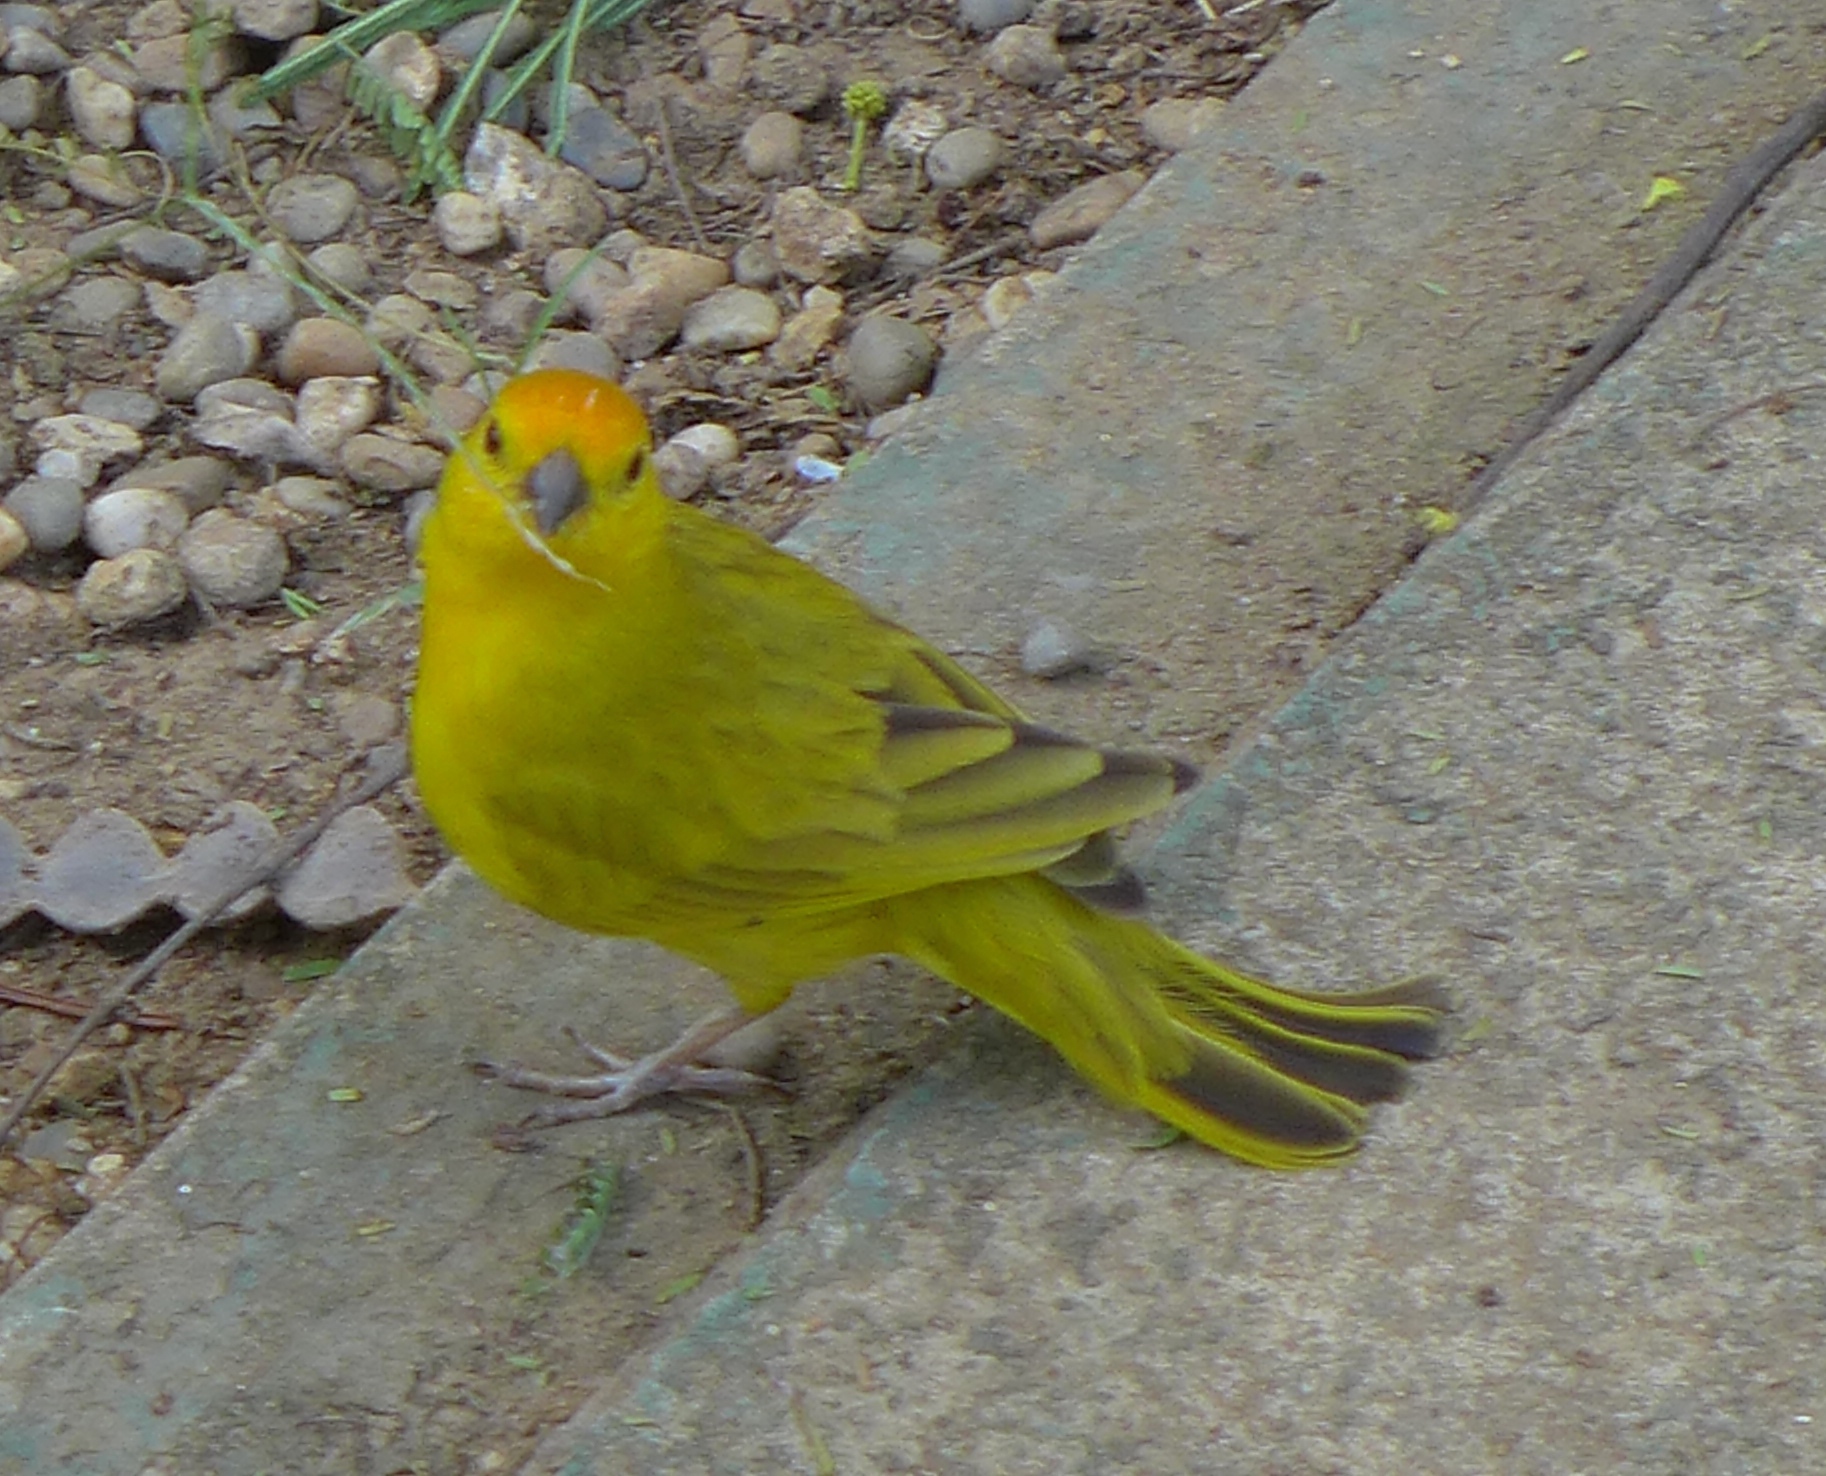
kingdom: Animalia
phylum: Chordata
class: Aves
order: Passeriformes
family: Thraupidae
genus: Sicalis
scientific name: Sicalis flaveola
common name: Saffron finch
